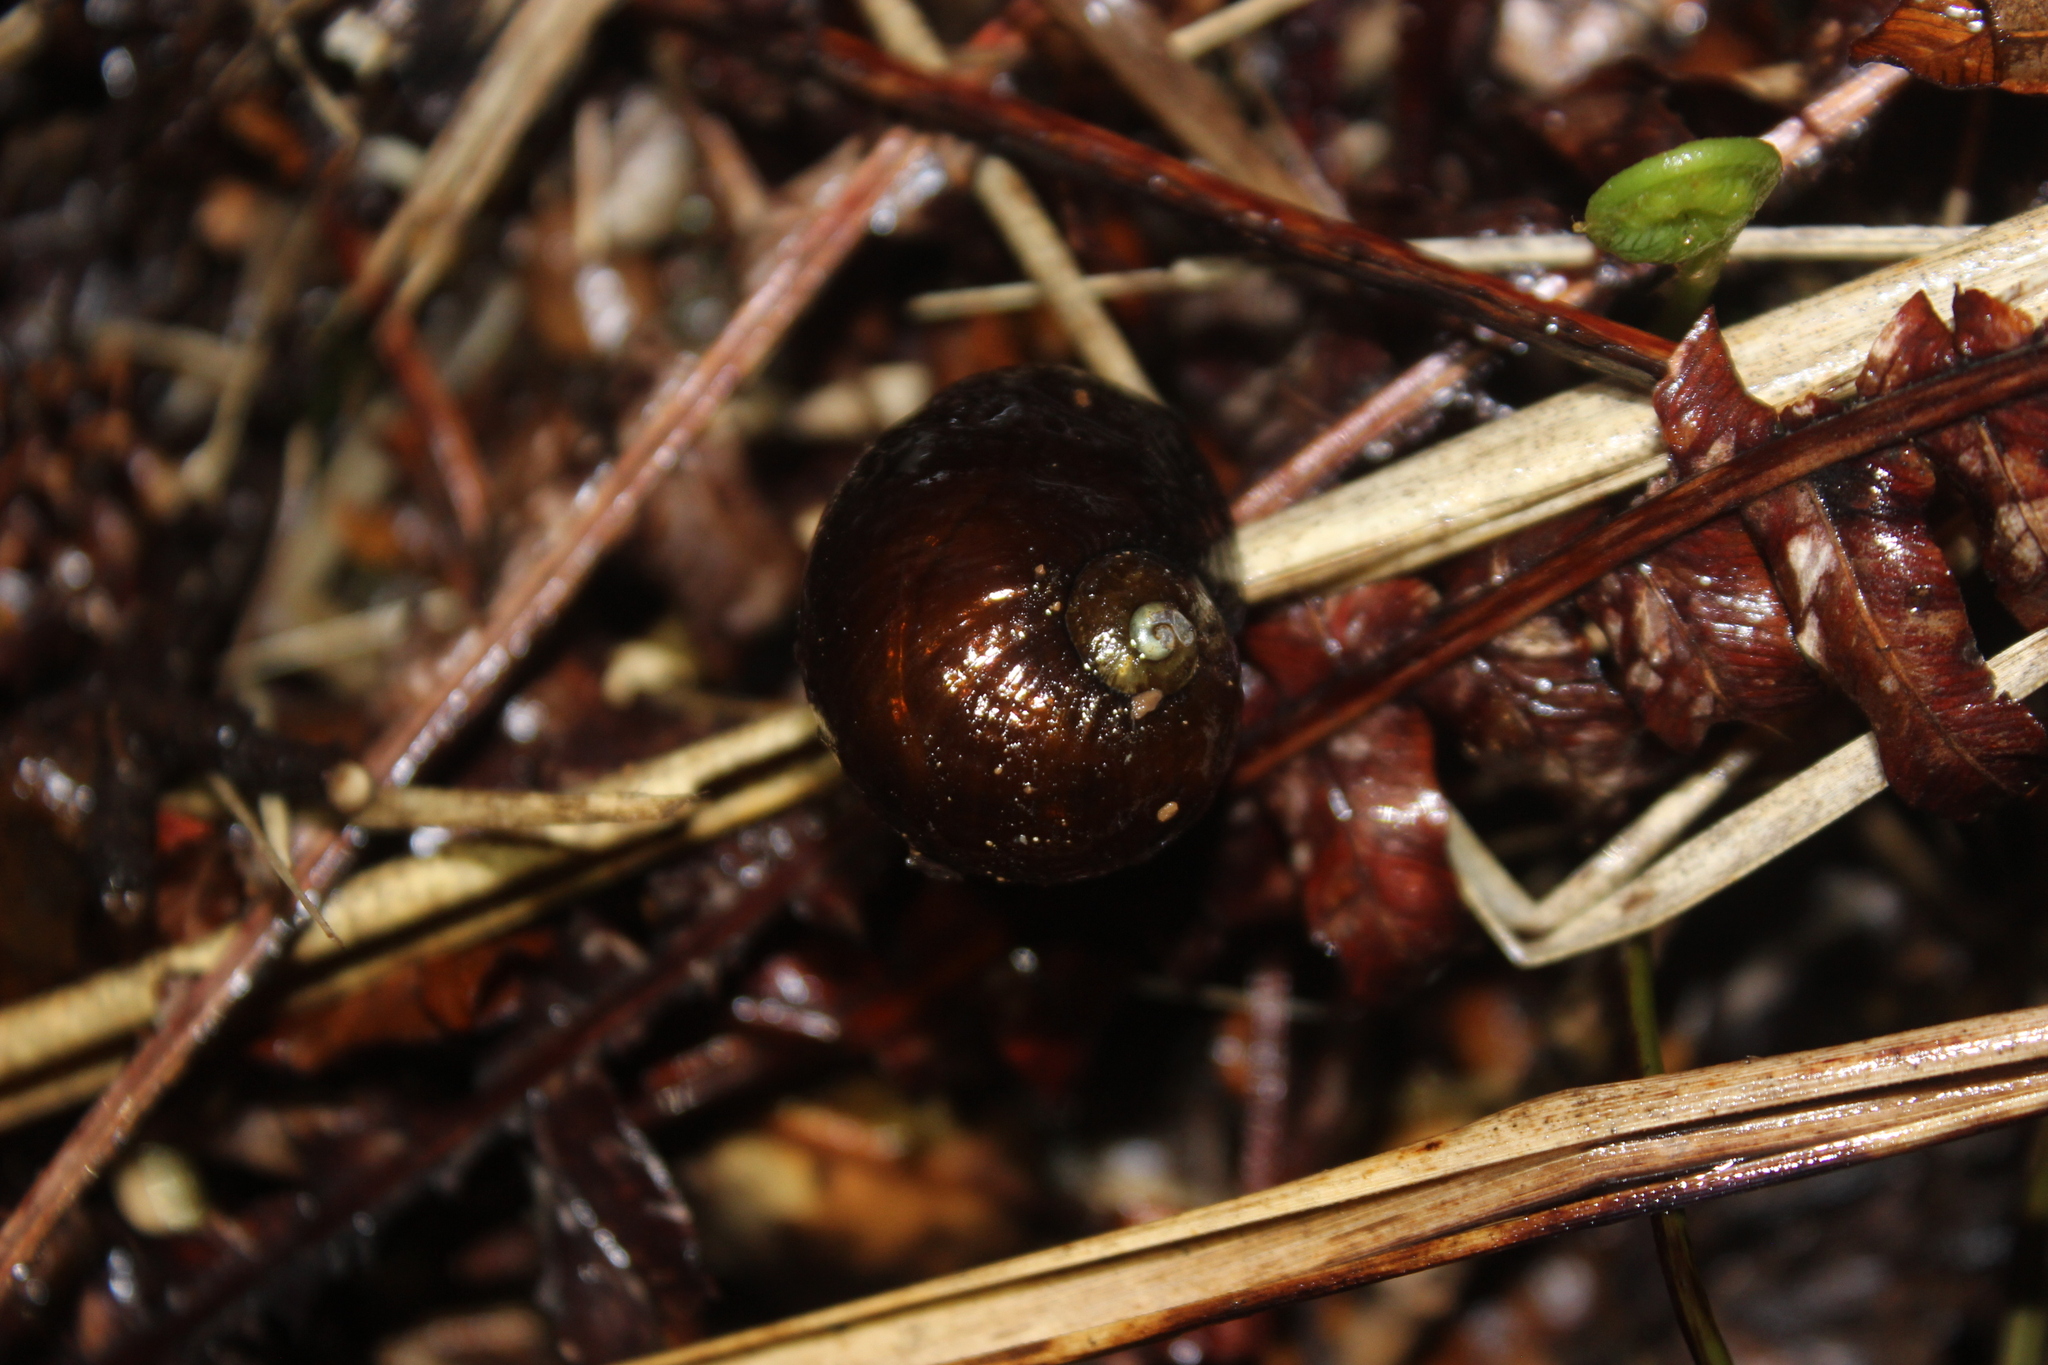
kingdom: Animalia
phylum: Mollusca
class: Gastropoda
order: Stylommatophora
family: Rhytididae
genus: Wainuia
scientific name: Wainuia urnula
